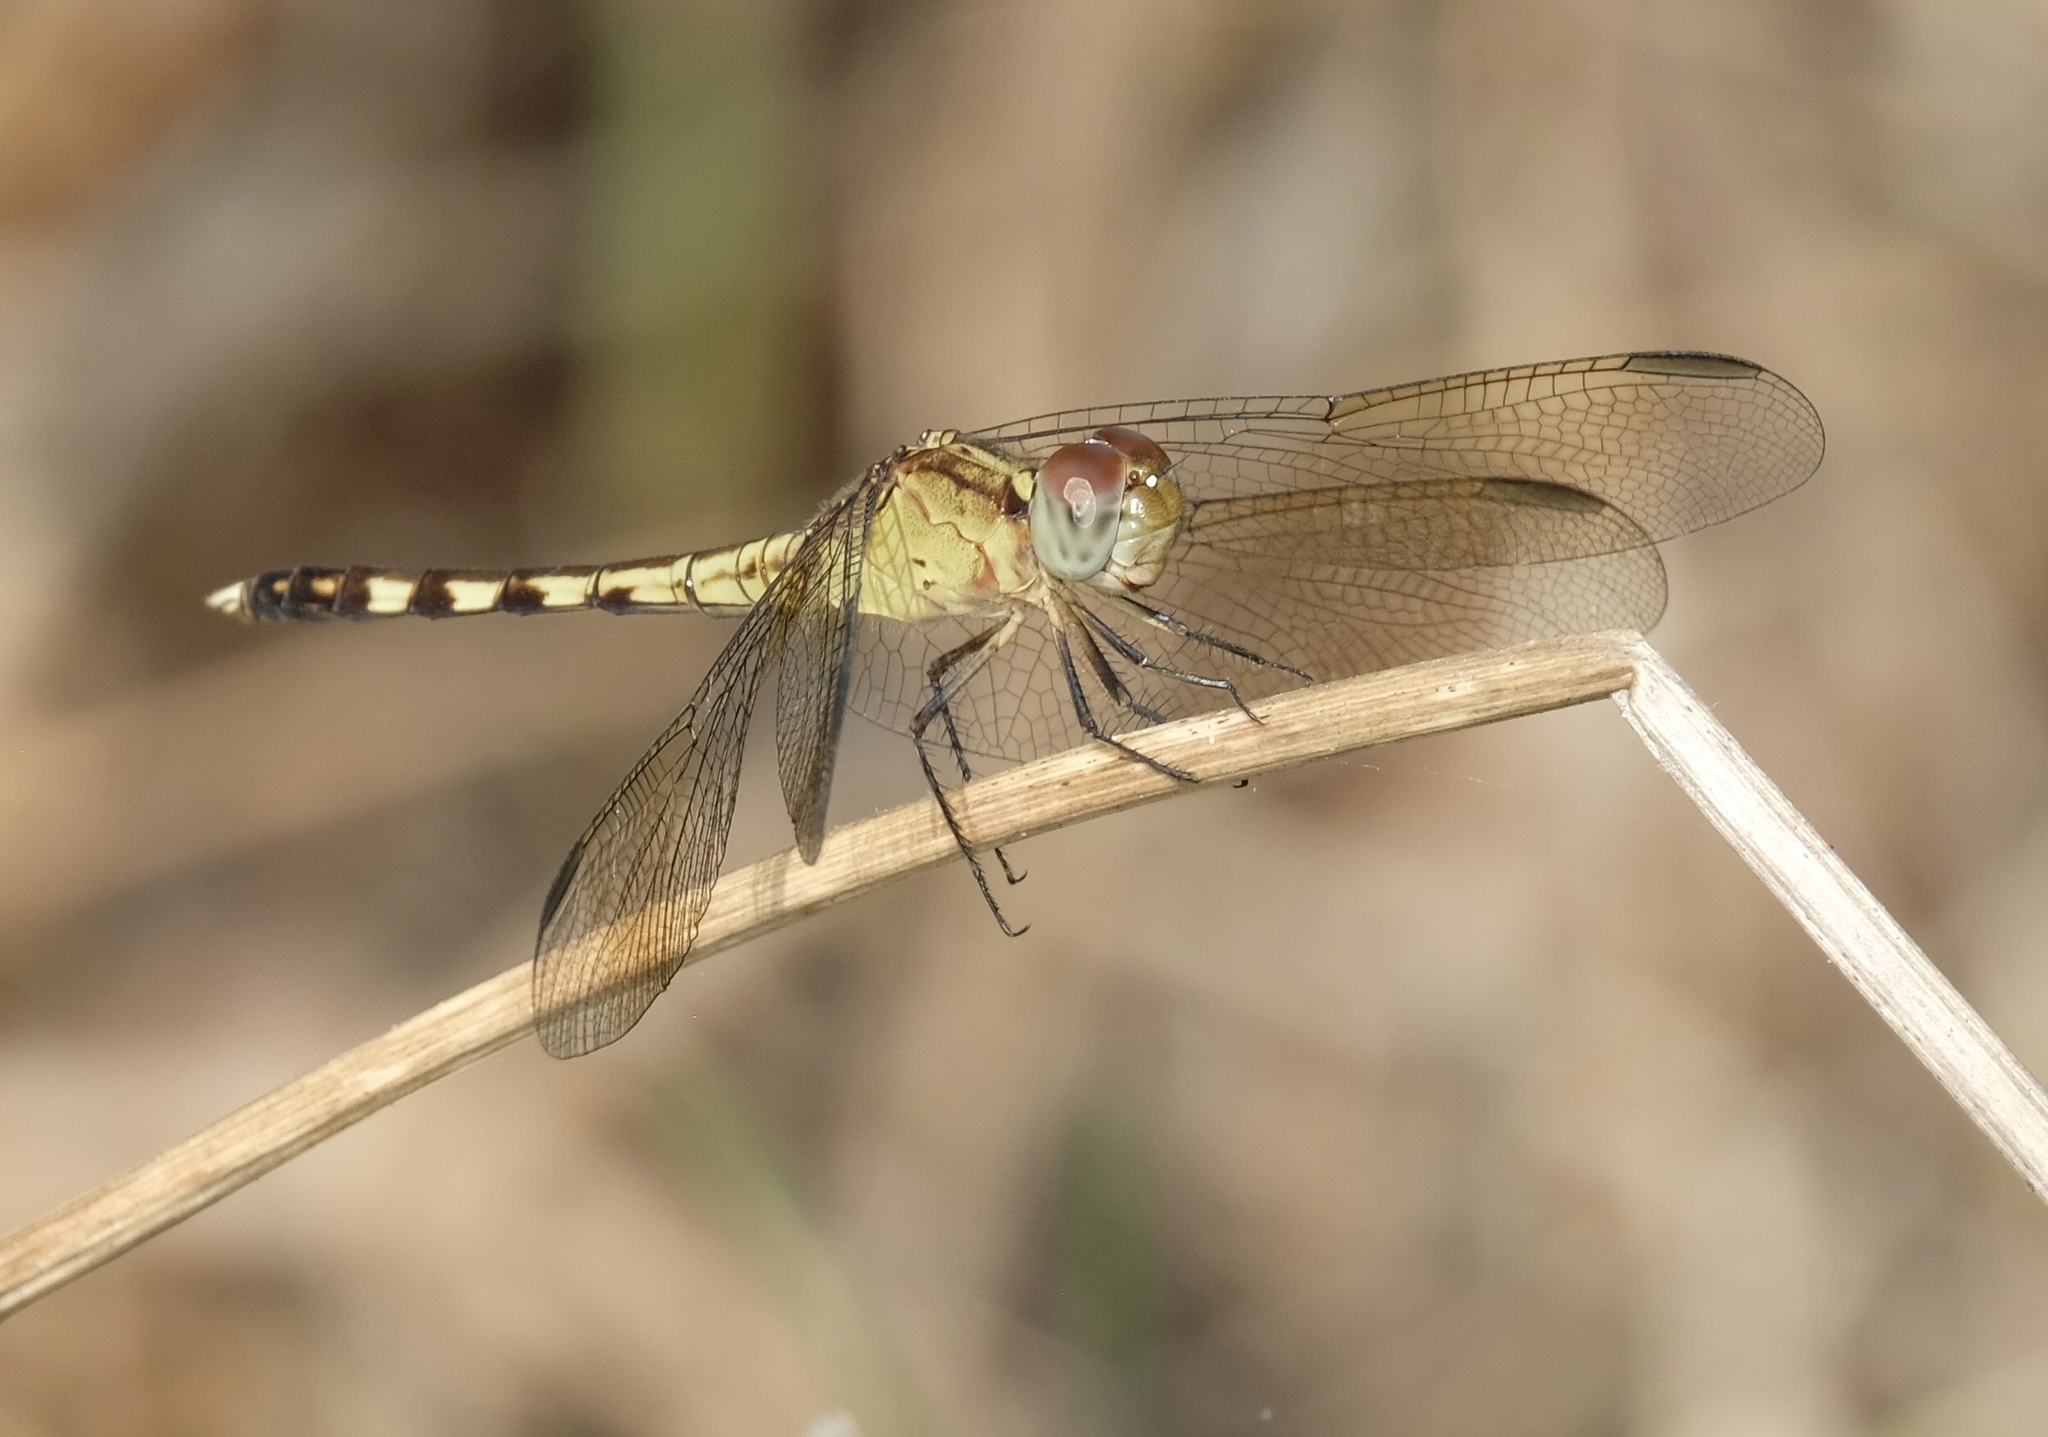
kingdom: Animalia
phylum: Arthropoda
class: Insecta
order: Odonata
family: Libellulidae
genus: Erythrodiplax
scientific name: Erythrodiplax umbrata
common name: Band-winged dragonlet
